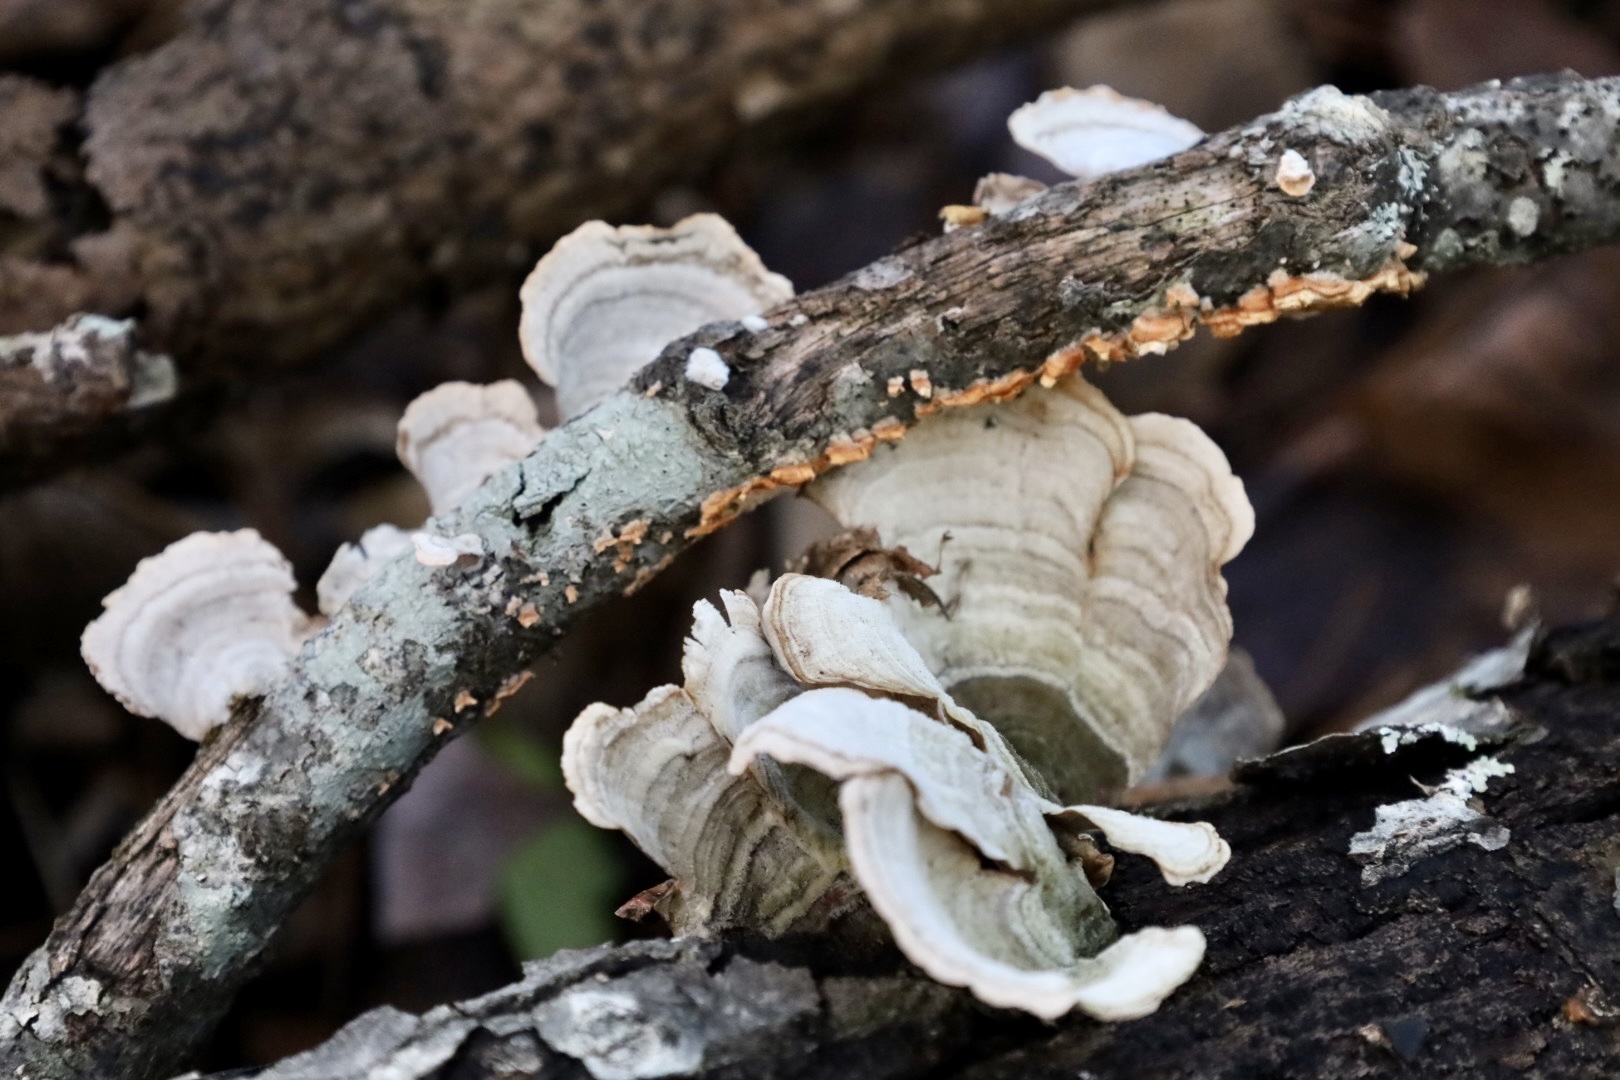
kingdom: Fungi
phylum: Basidiomycota
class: Agaricomycetes
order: Russulales
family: Stereaceae
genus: Stereum
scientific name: Stereum ostrea
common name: False turkeytail
